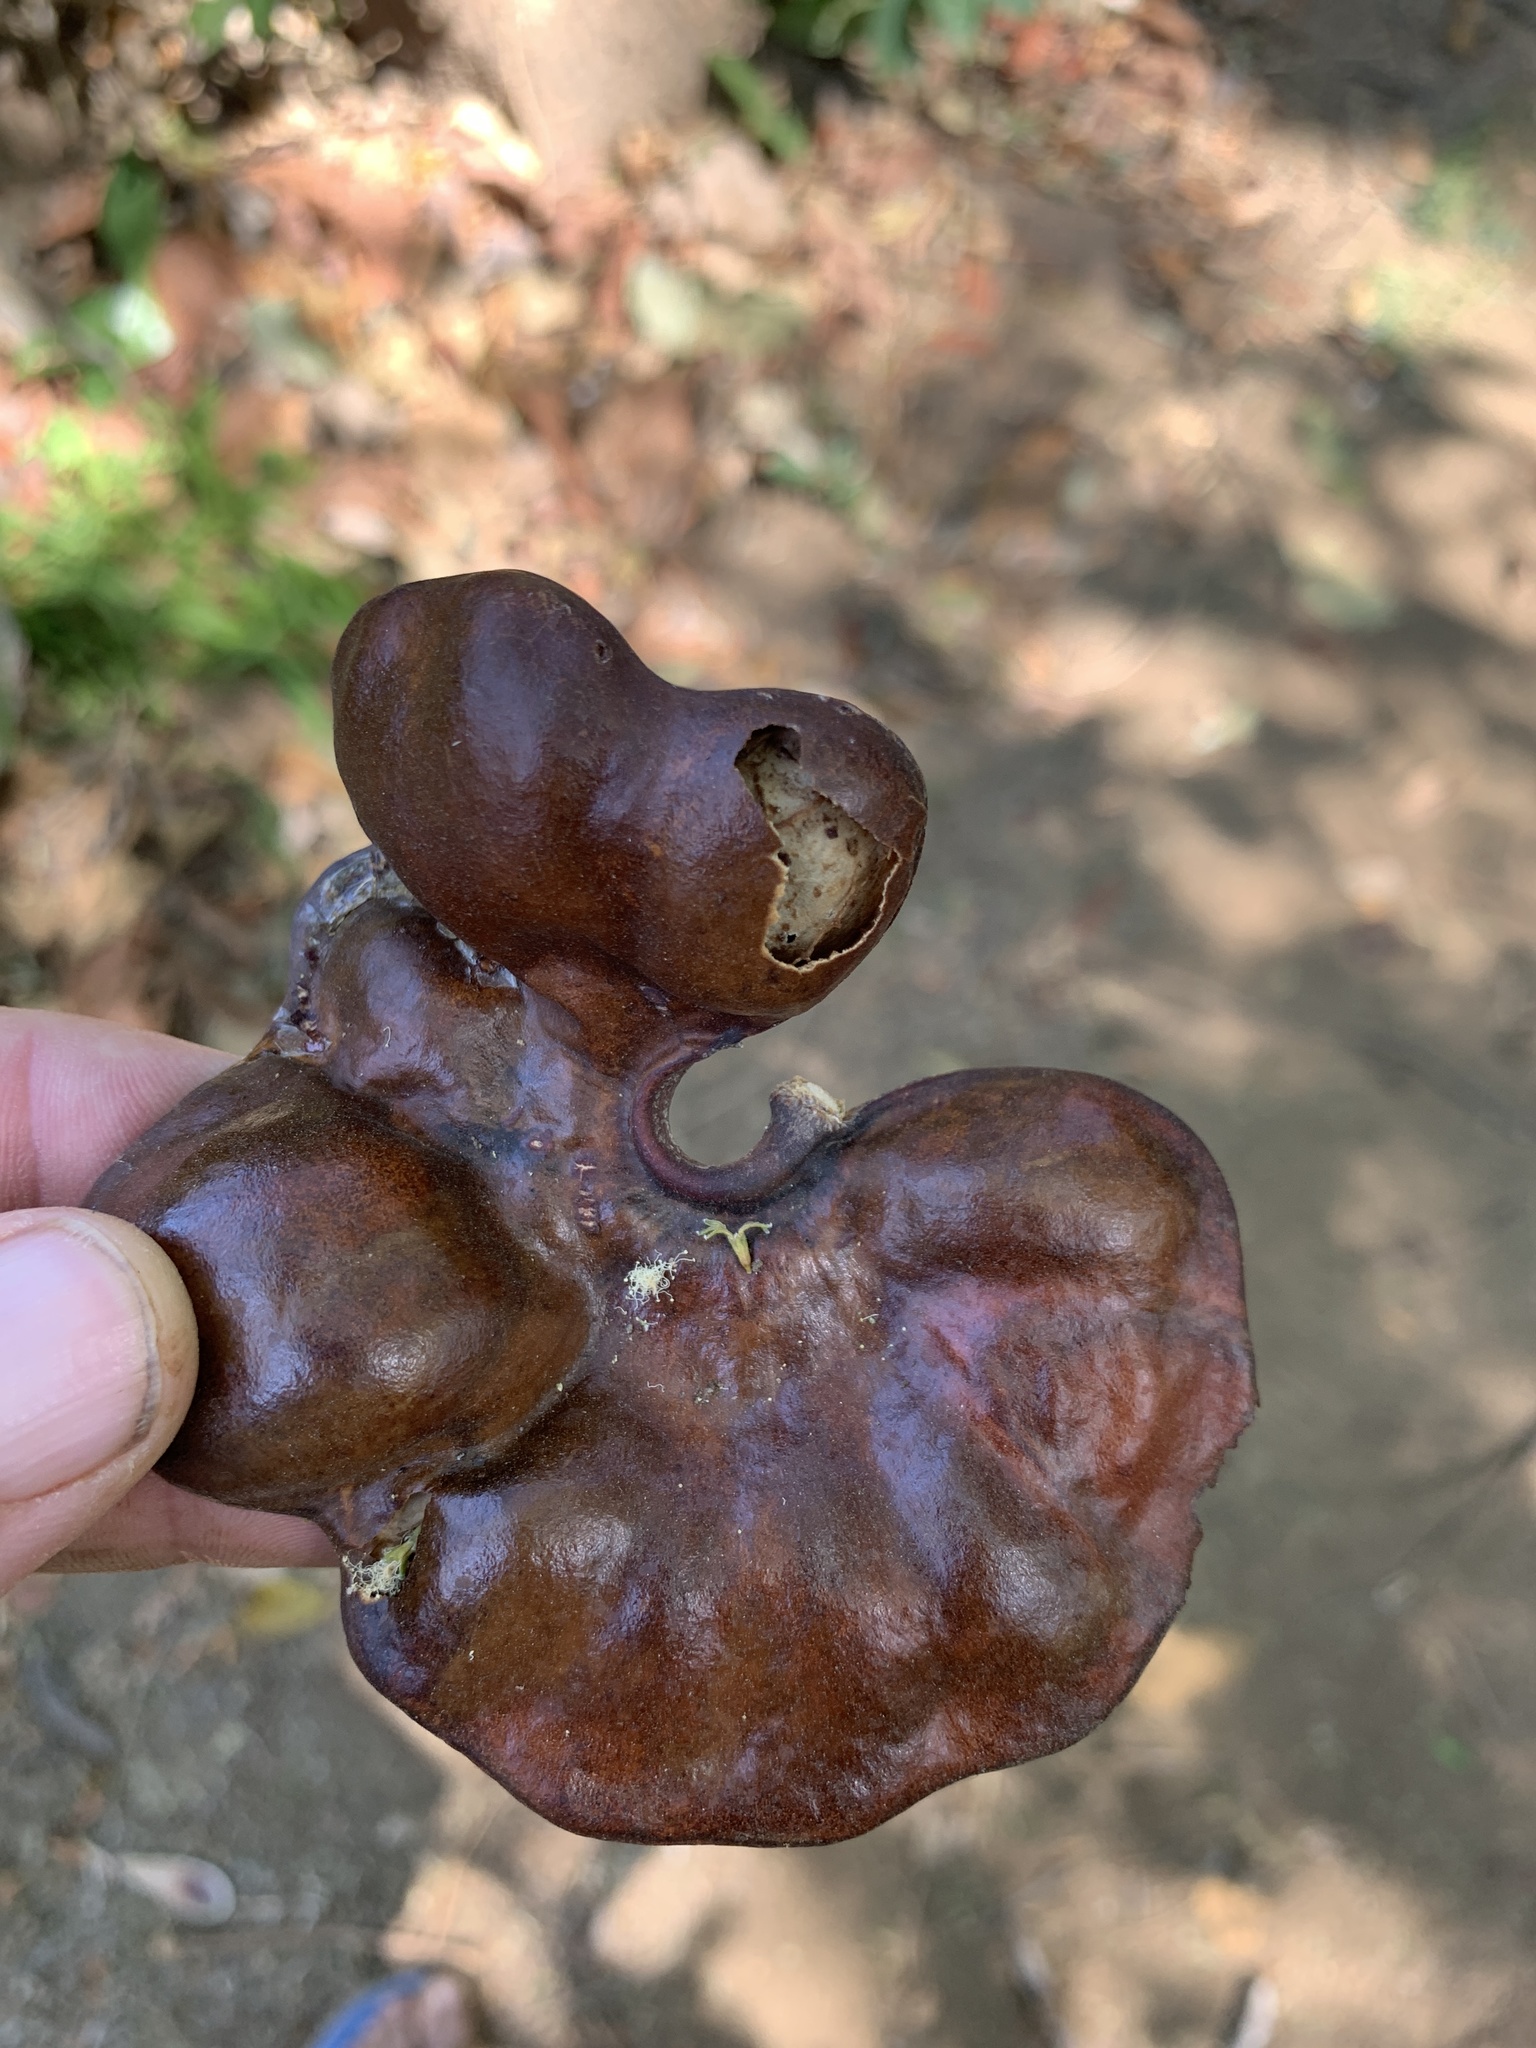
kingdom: Plantae
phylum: Tracheophyta
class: Magnoliopsida
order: Fabales
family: Fabaceae
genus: Enterolobium
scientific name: Enterolobium cyclocarpum
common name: Ear tree
